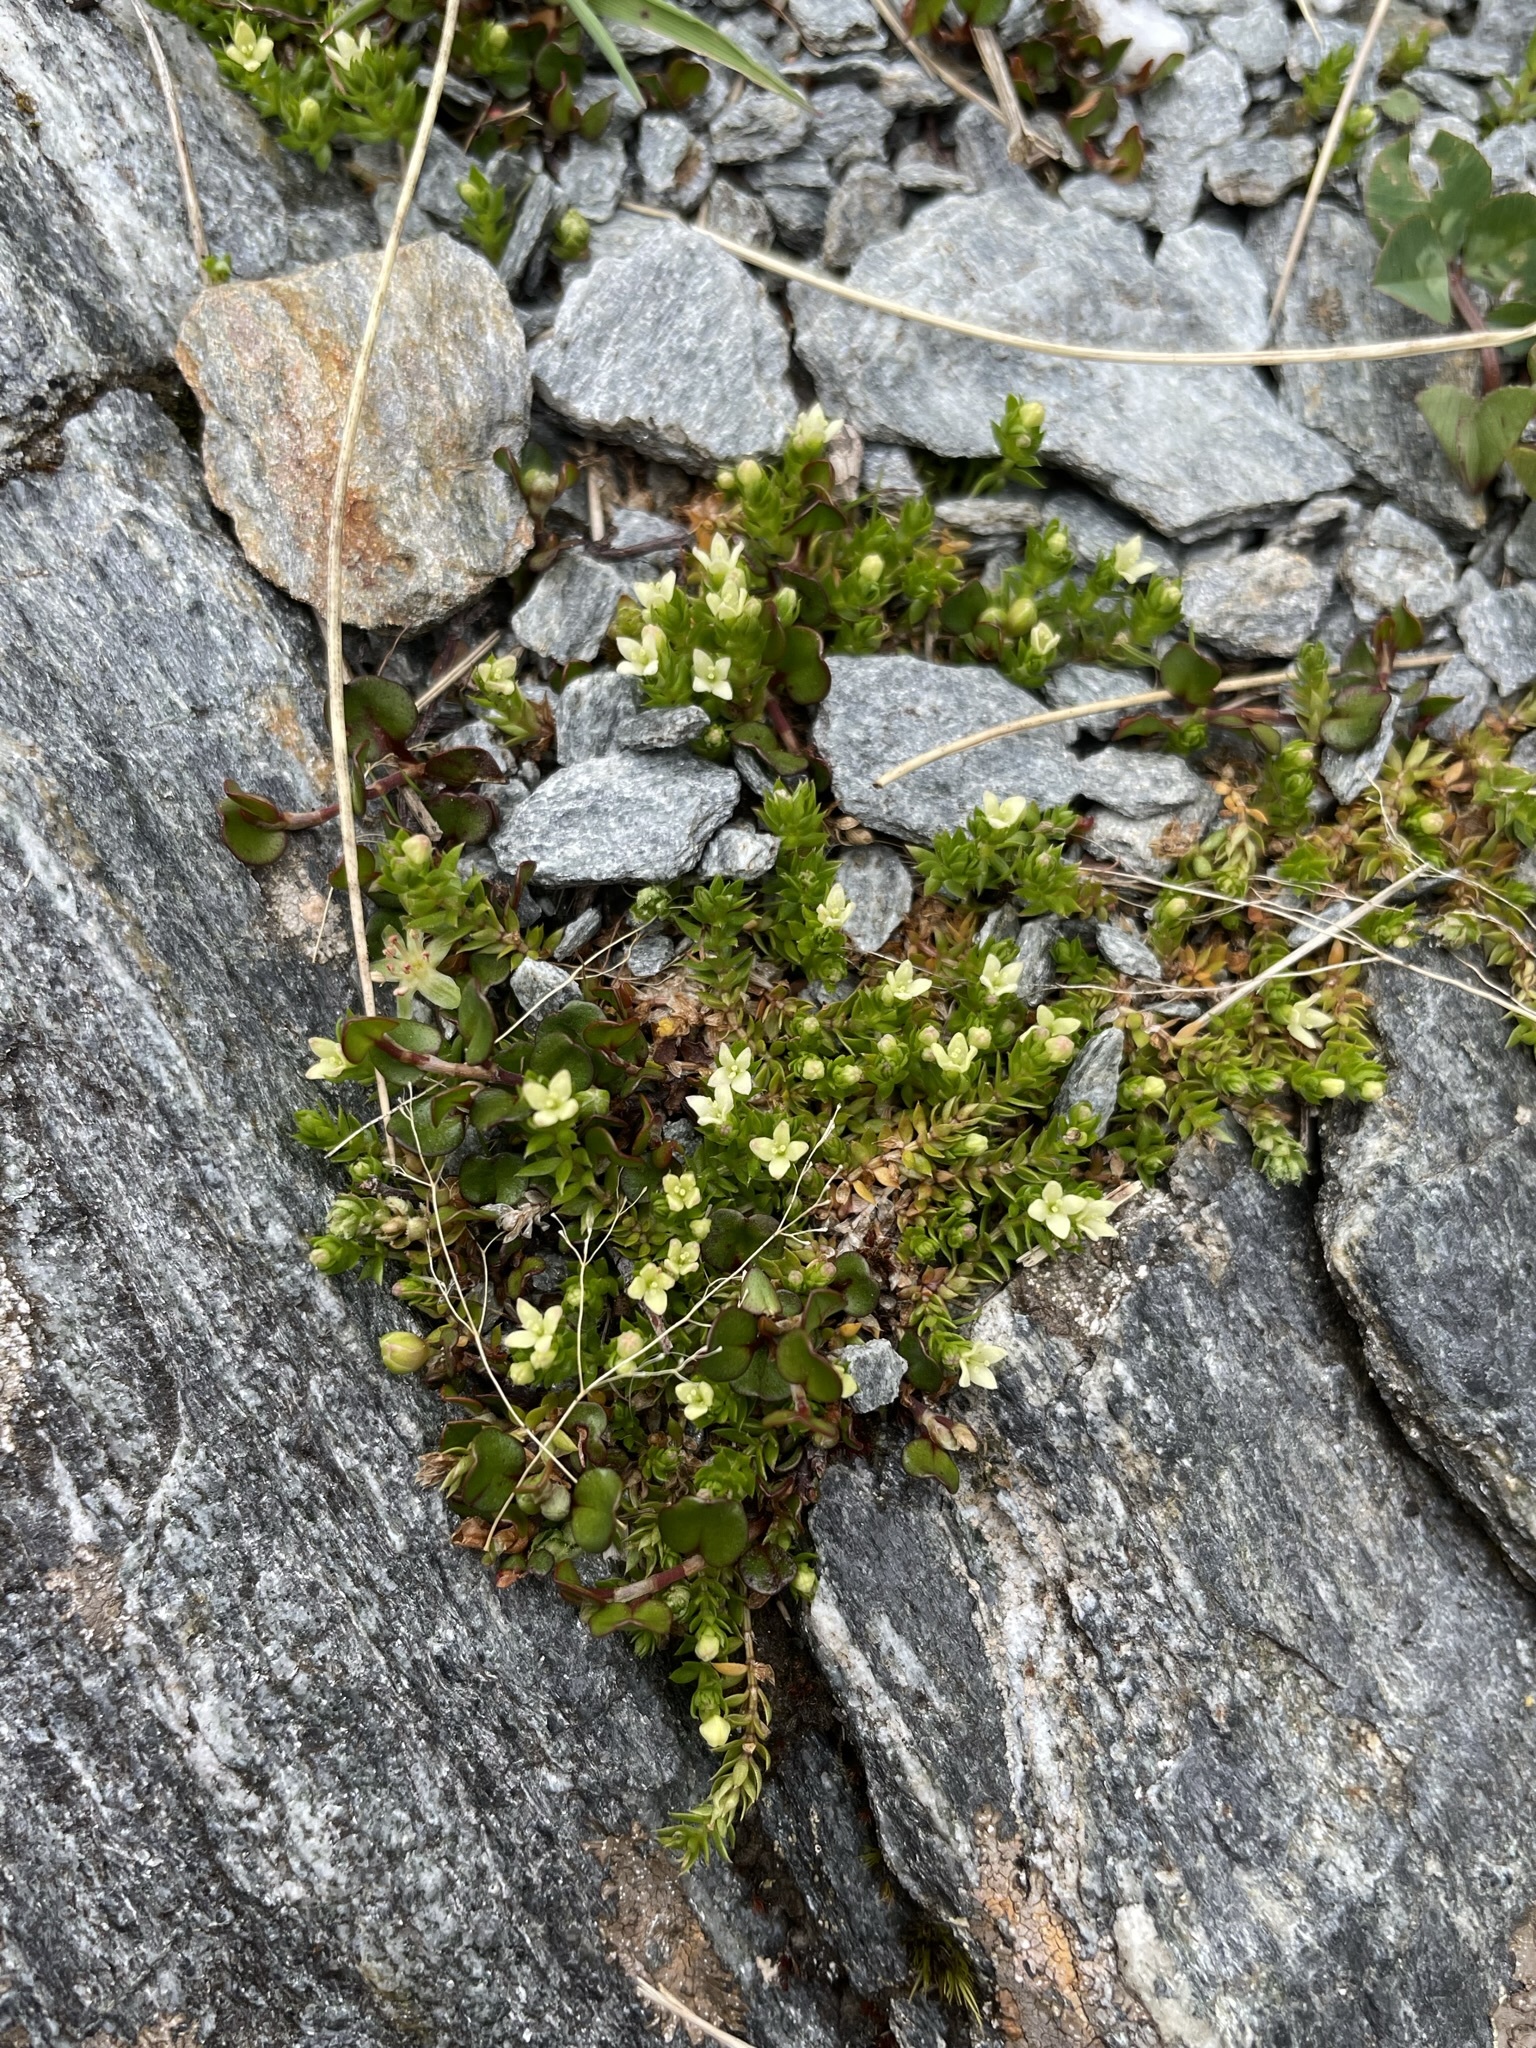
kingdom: Plantae
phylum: Tracheophyta
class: Magnoliopsida
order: Gentianales
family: Rubiaceae
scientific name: Rubiaceae
